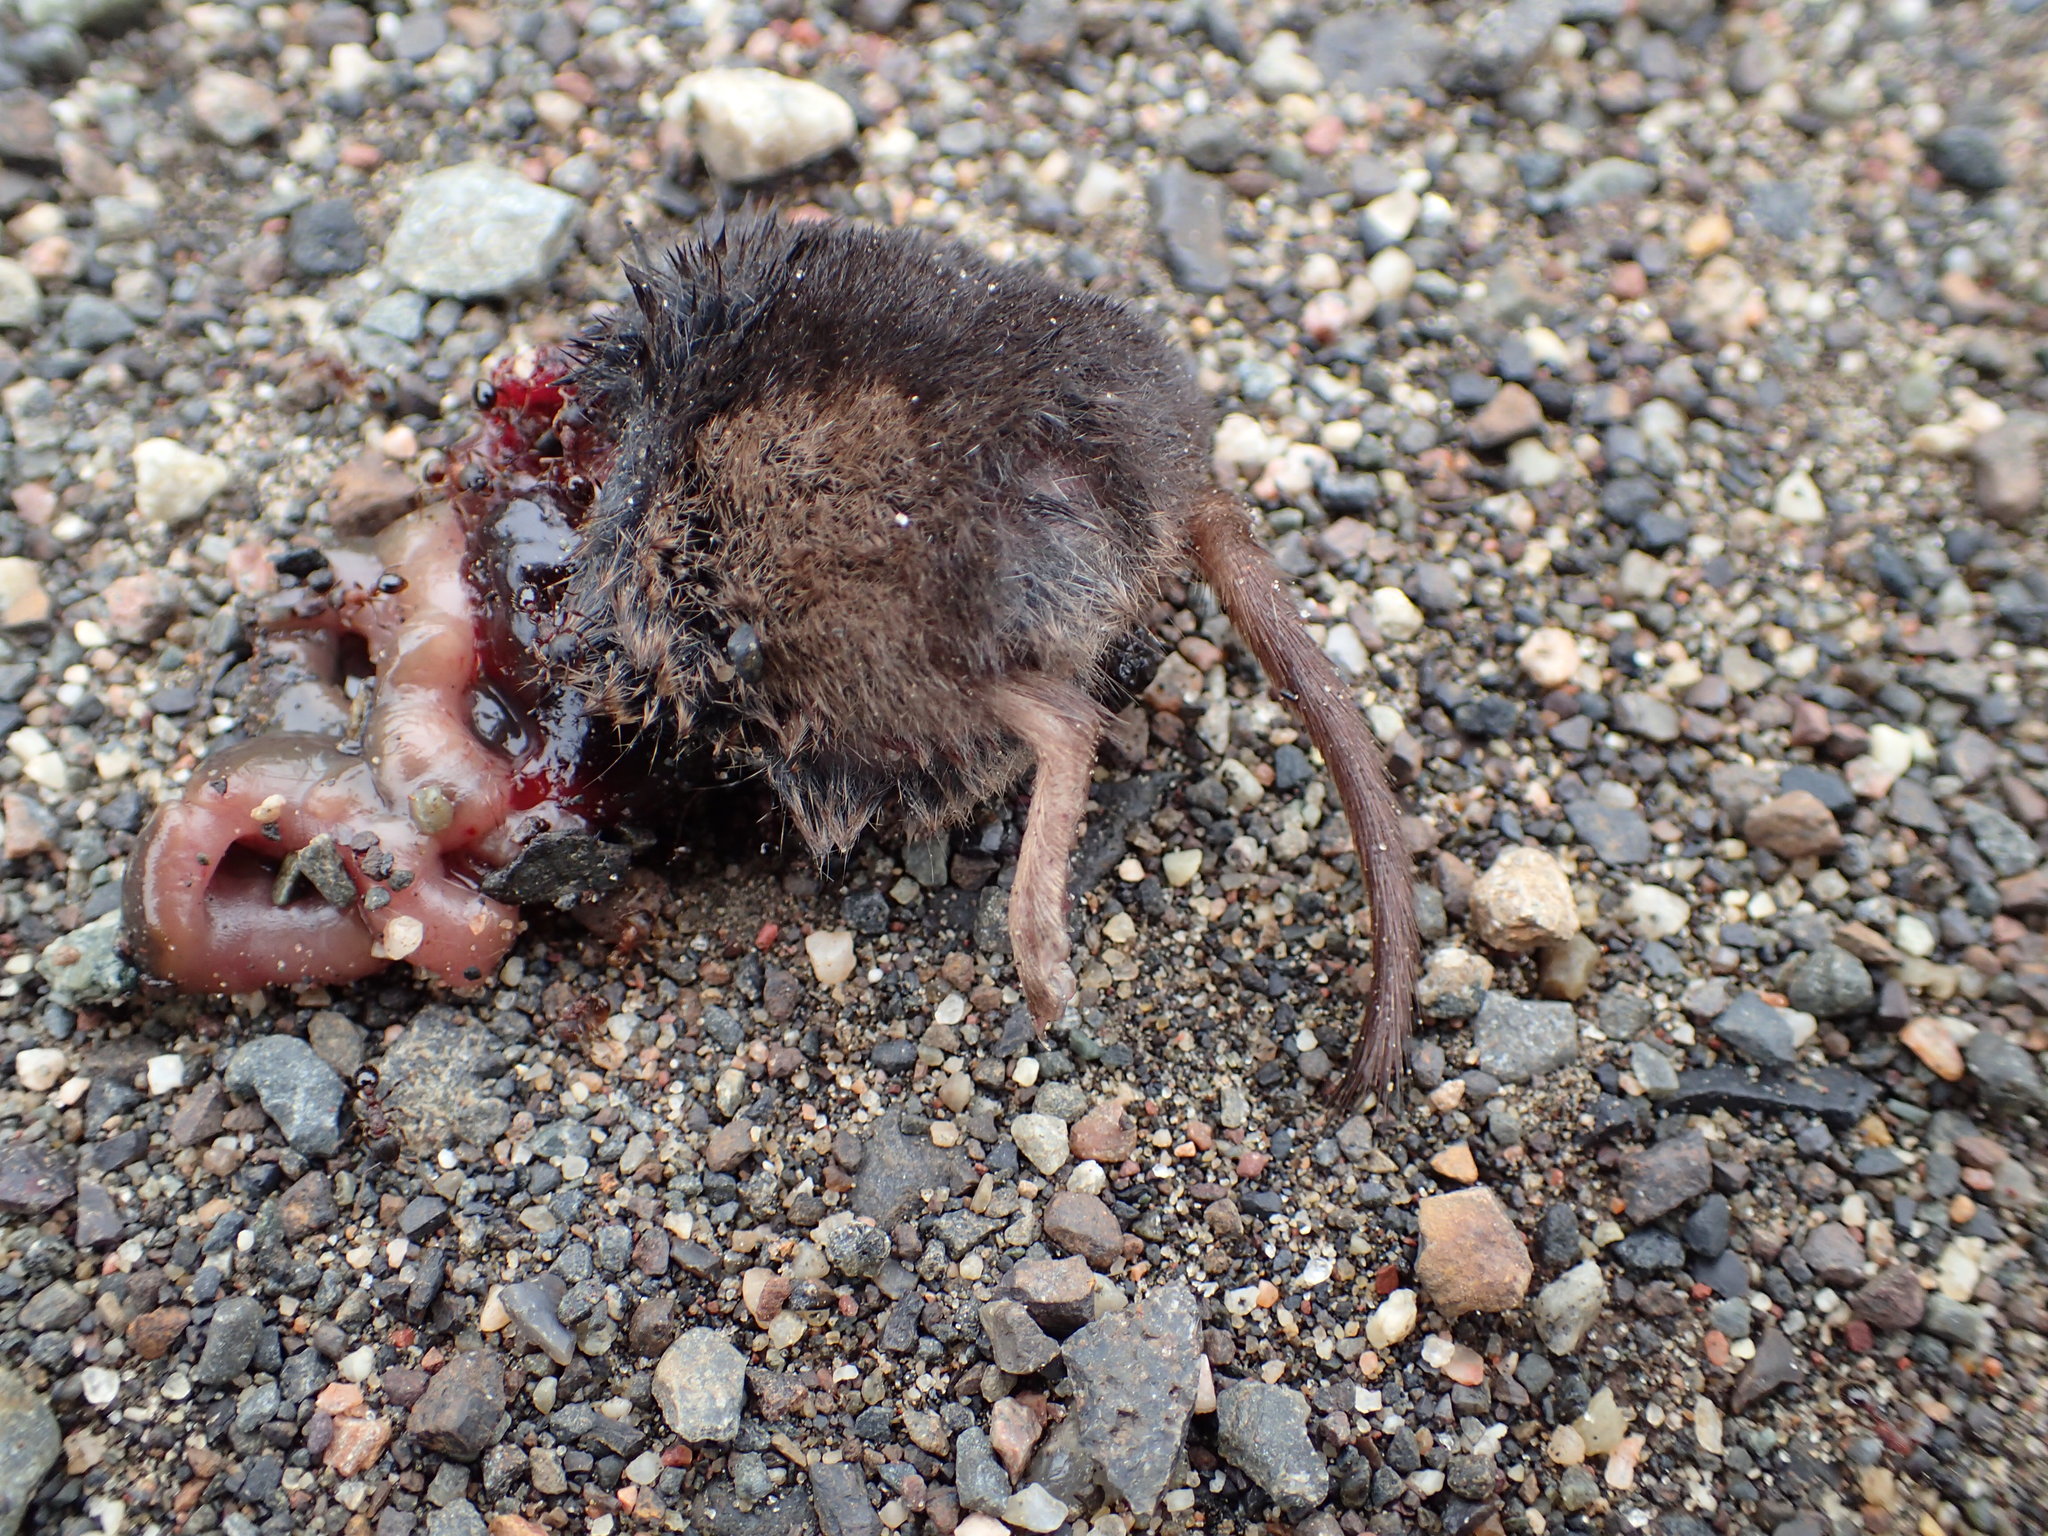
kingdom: Animalia
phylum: Chordata
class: Mammalia
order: Soricomorpha
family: Soricidae
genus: Sorex
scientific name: Sorex arcticus
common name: Arctic shrew
